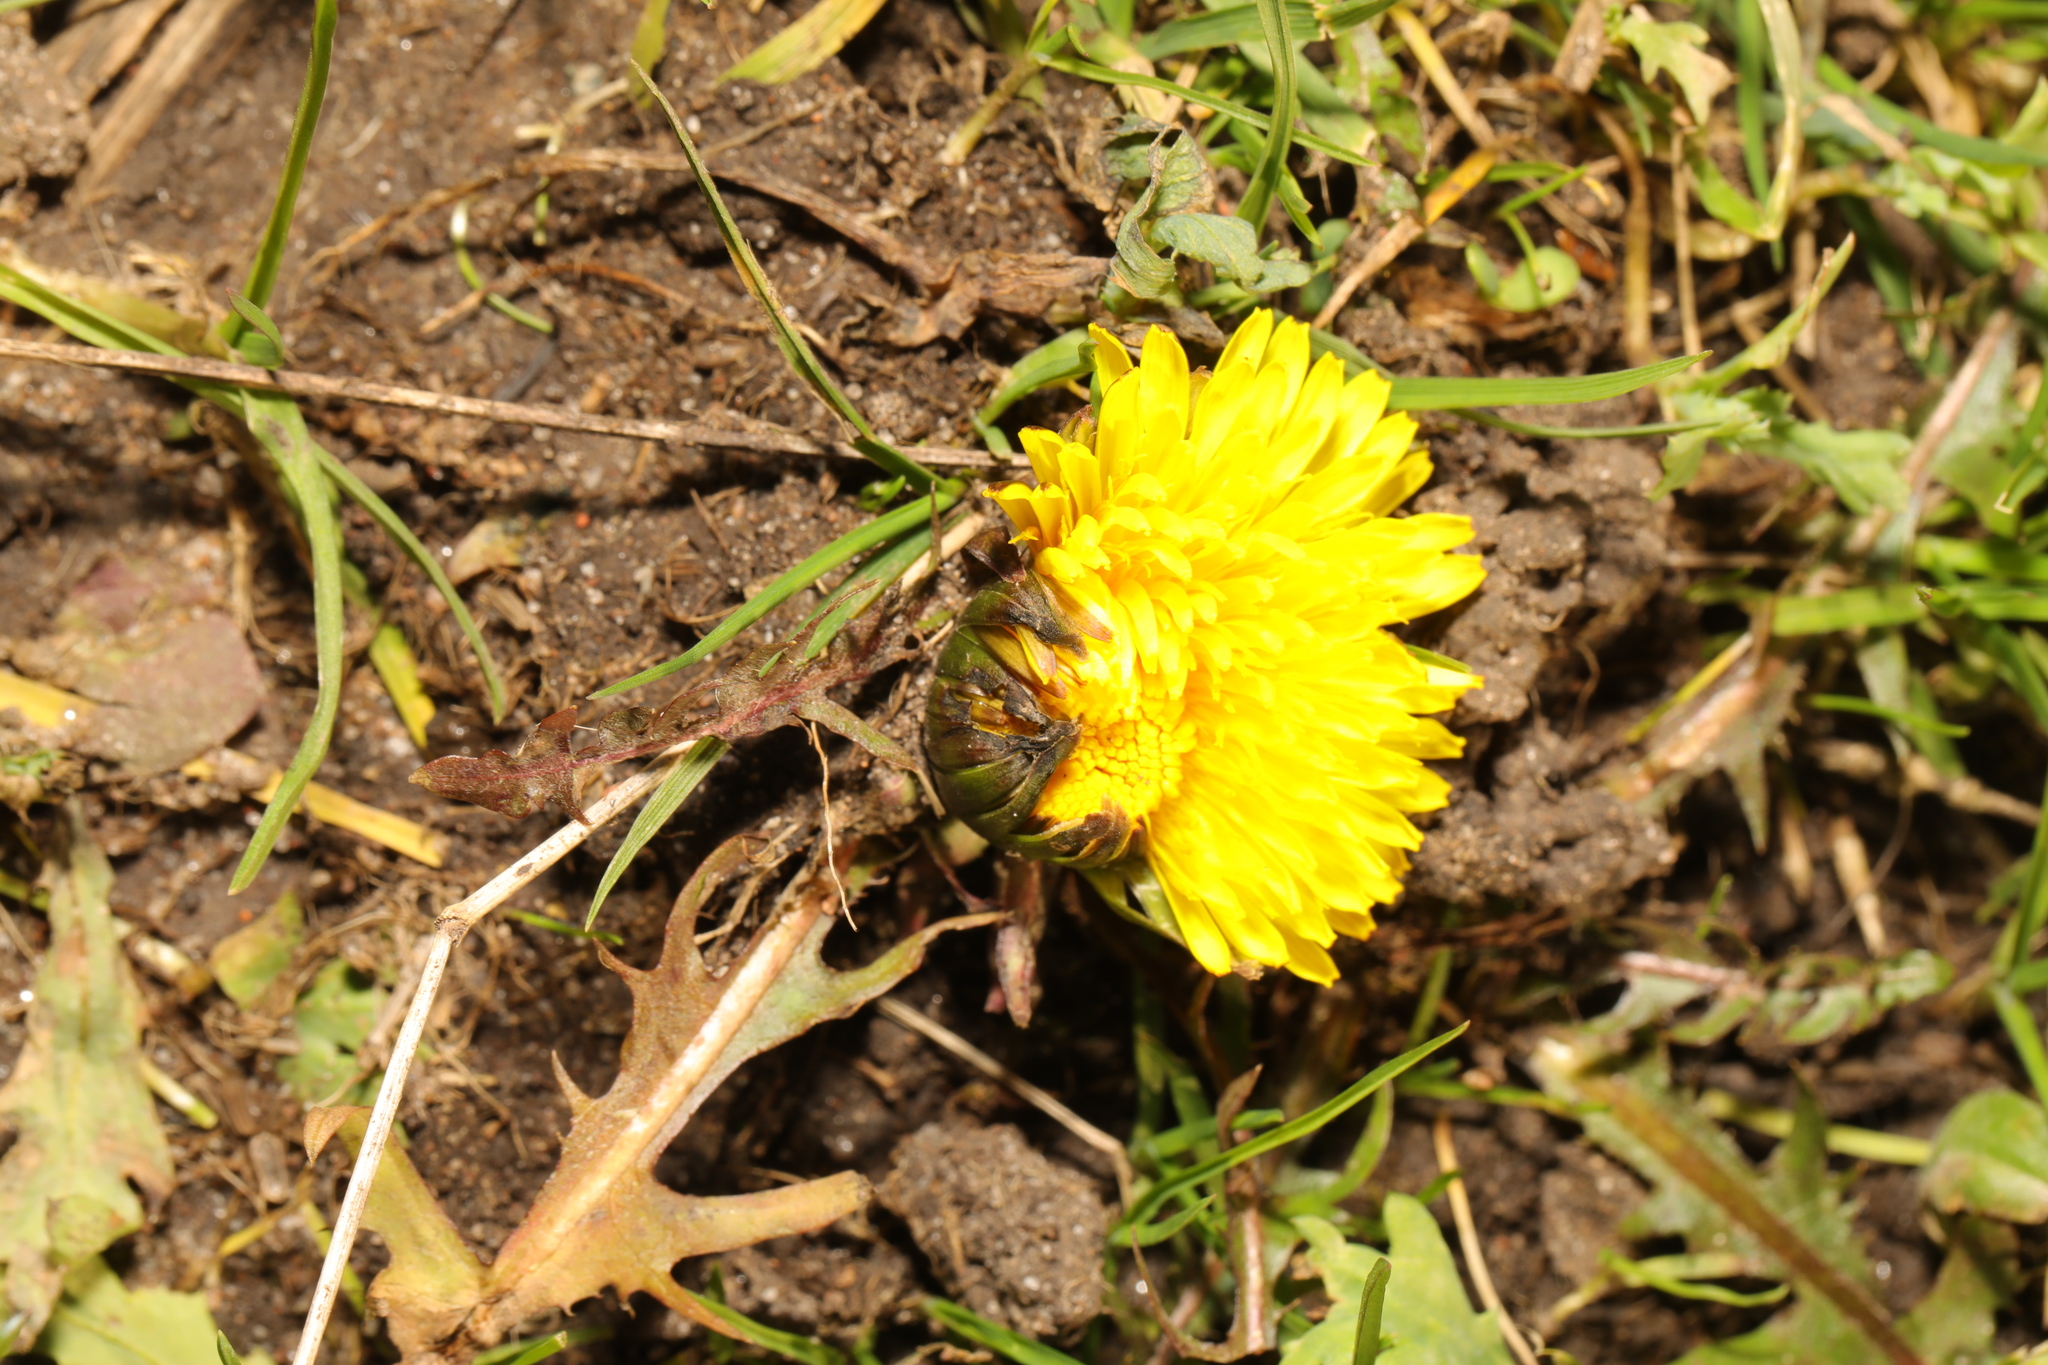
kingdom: Plantae
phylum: Tracheophyta
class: Magnoliopsida
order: Asterales
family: Asteraceae
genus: Taraxacum
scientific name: Taraxacum officinale
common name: Common dandelion
